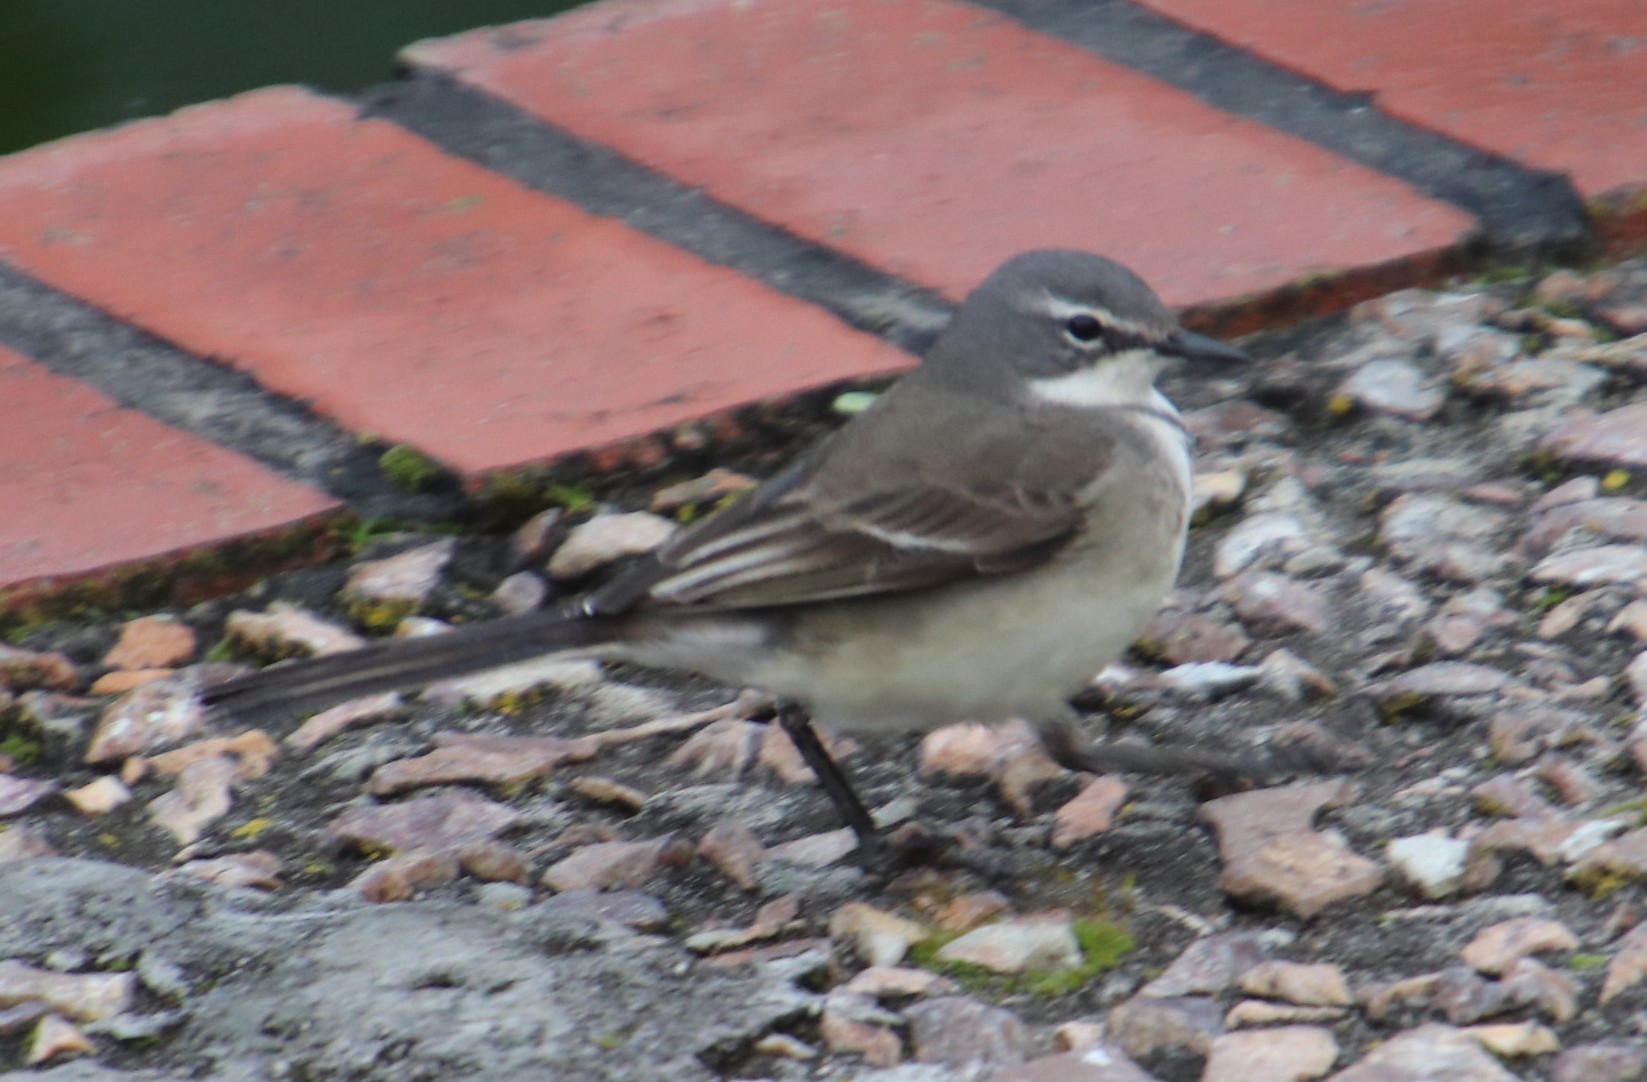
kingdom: Animalia
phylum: Chordata
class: Aves
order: Passeriformes
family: Motacillidae
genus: Motacilla
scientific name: Motacilla capensis
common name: Cape wagtail
